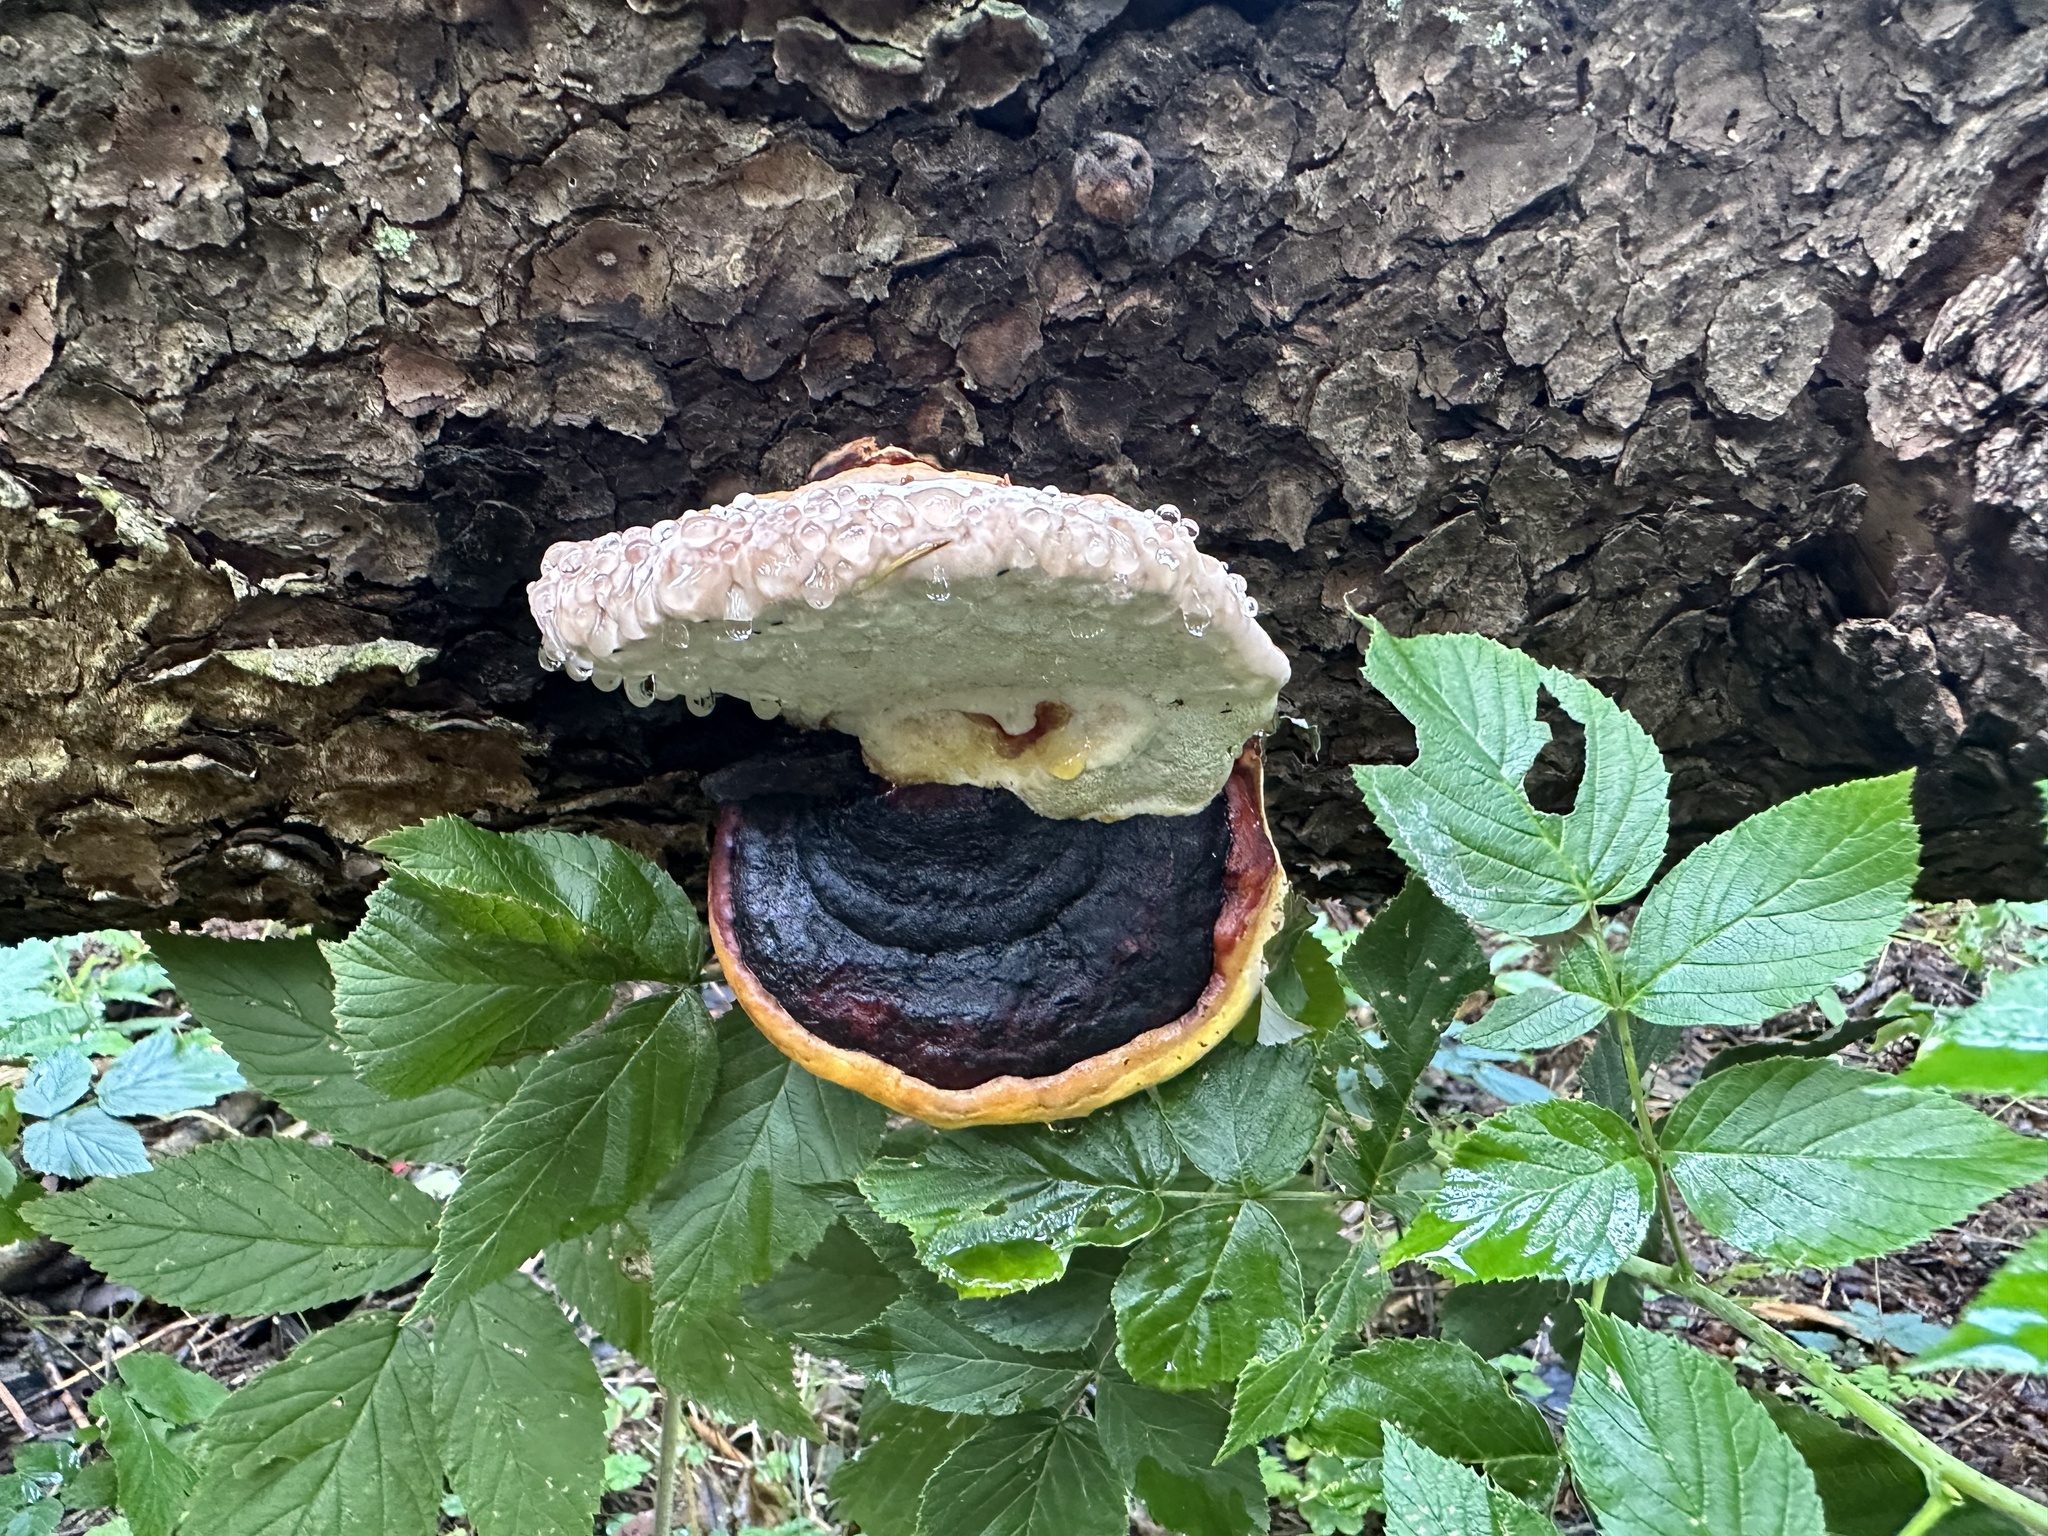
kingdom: Fungi
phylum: Basidiomycota
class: Agaricomycetes
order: Polyporales
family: Fomitopsidaceae
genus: Fomitopsis
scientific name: Fomitopsis pinicola
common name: Red-belted bracket
